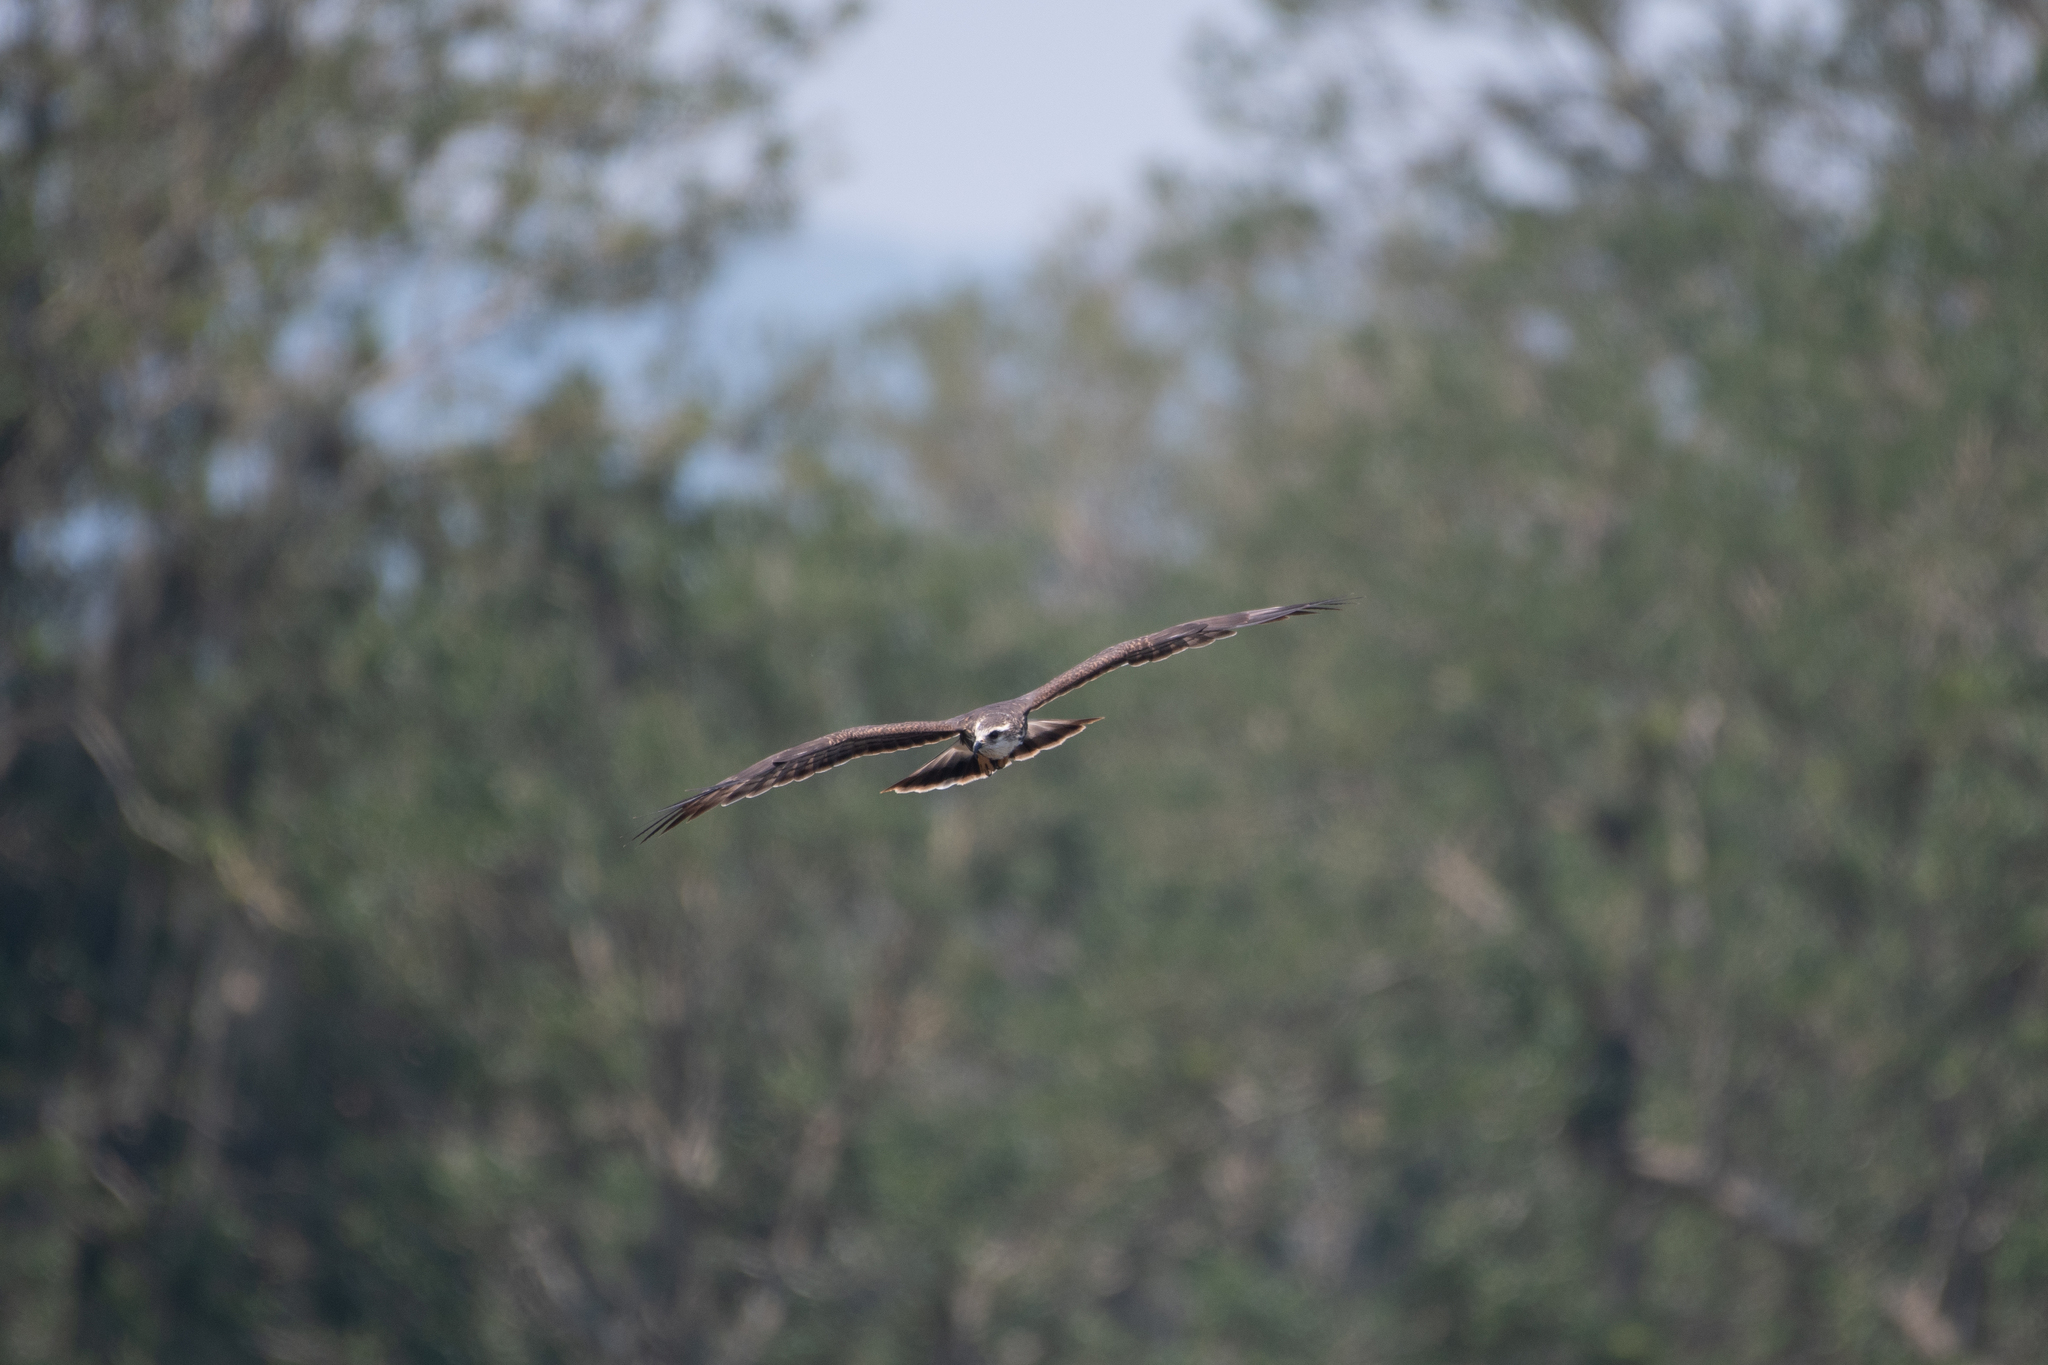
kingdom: Animalia
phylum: Chordata
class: Aves
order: Accipitriformes
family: Accipitridae
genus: Rostrhamus
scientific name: Rostrhamus sociabilis
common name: Snail kite
